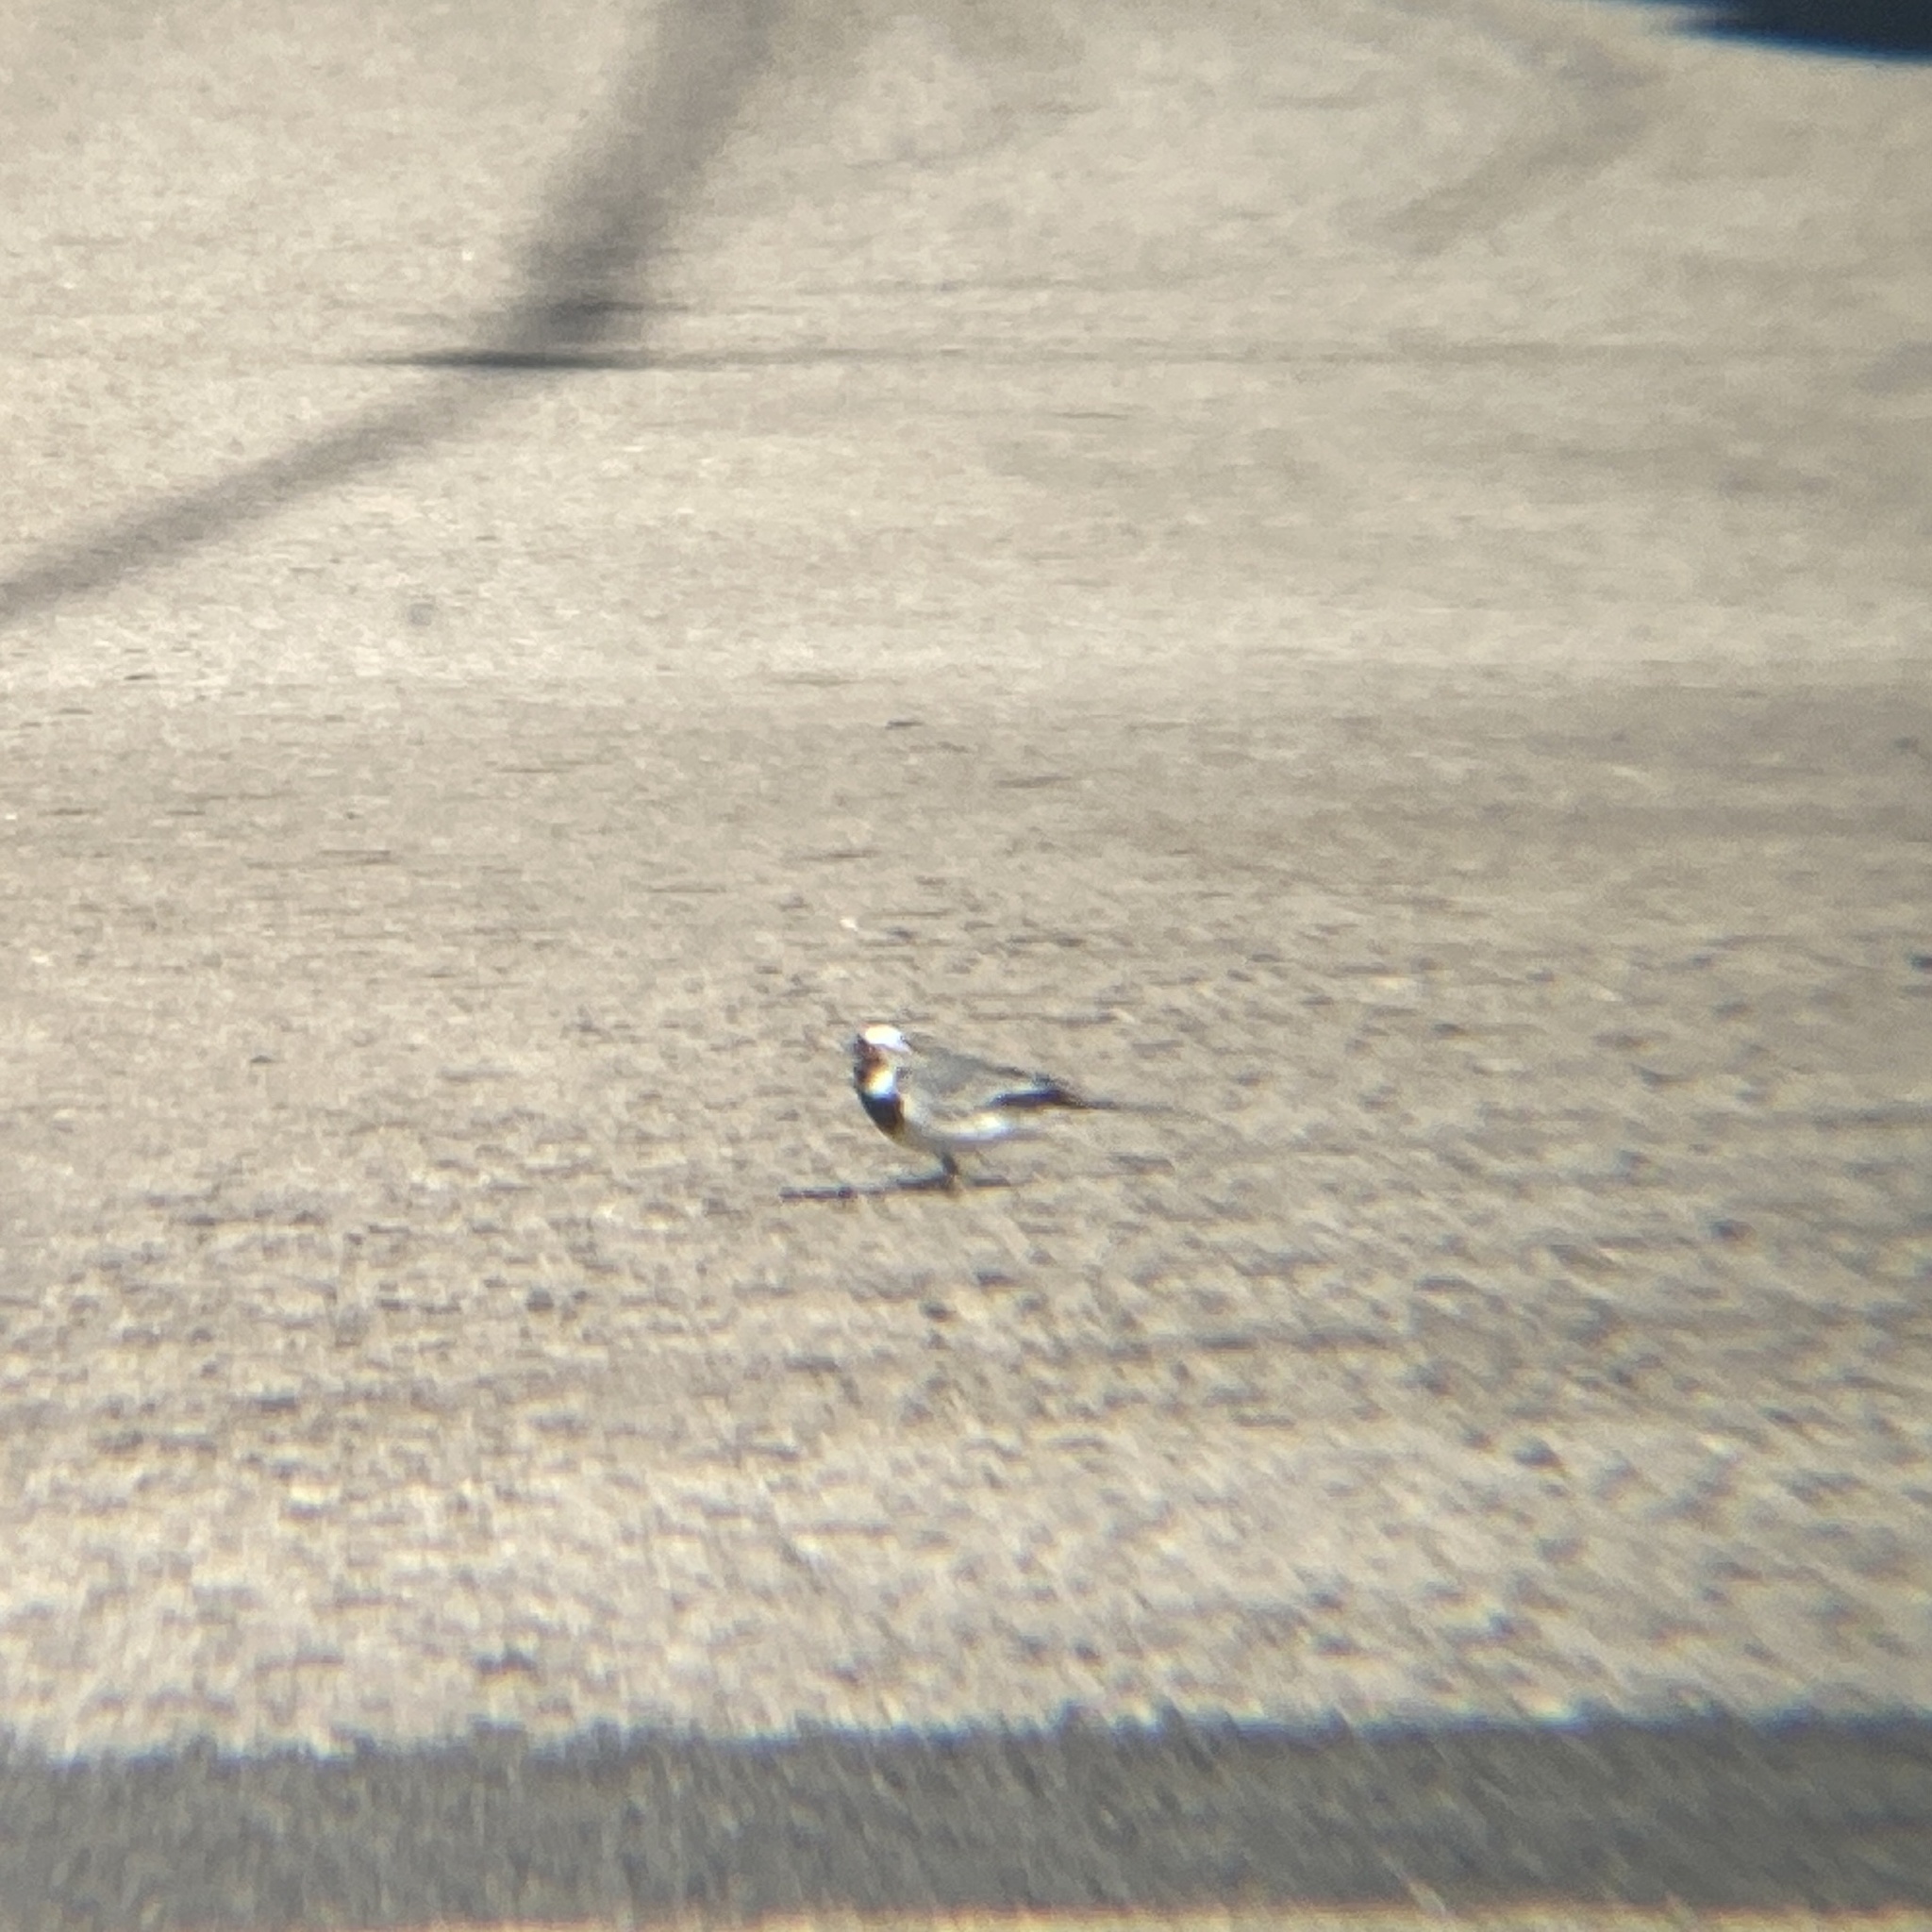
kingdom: Animalia
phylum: Chordata
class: Aves
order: Passeriformes
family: Motacillidae
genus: Motacilla
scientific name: Motacilla alba
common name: White wagtail
